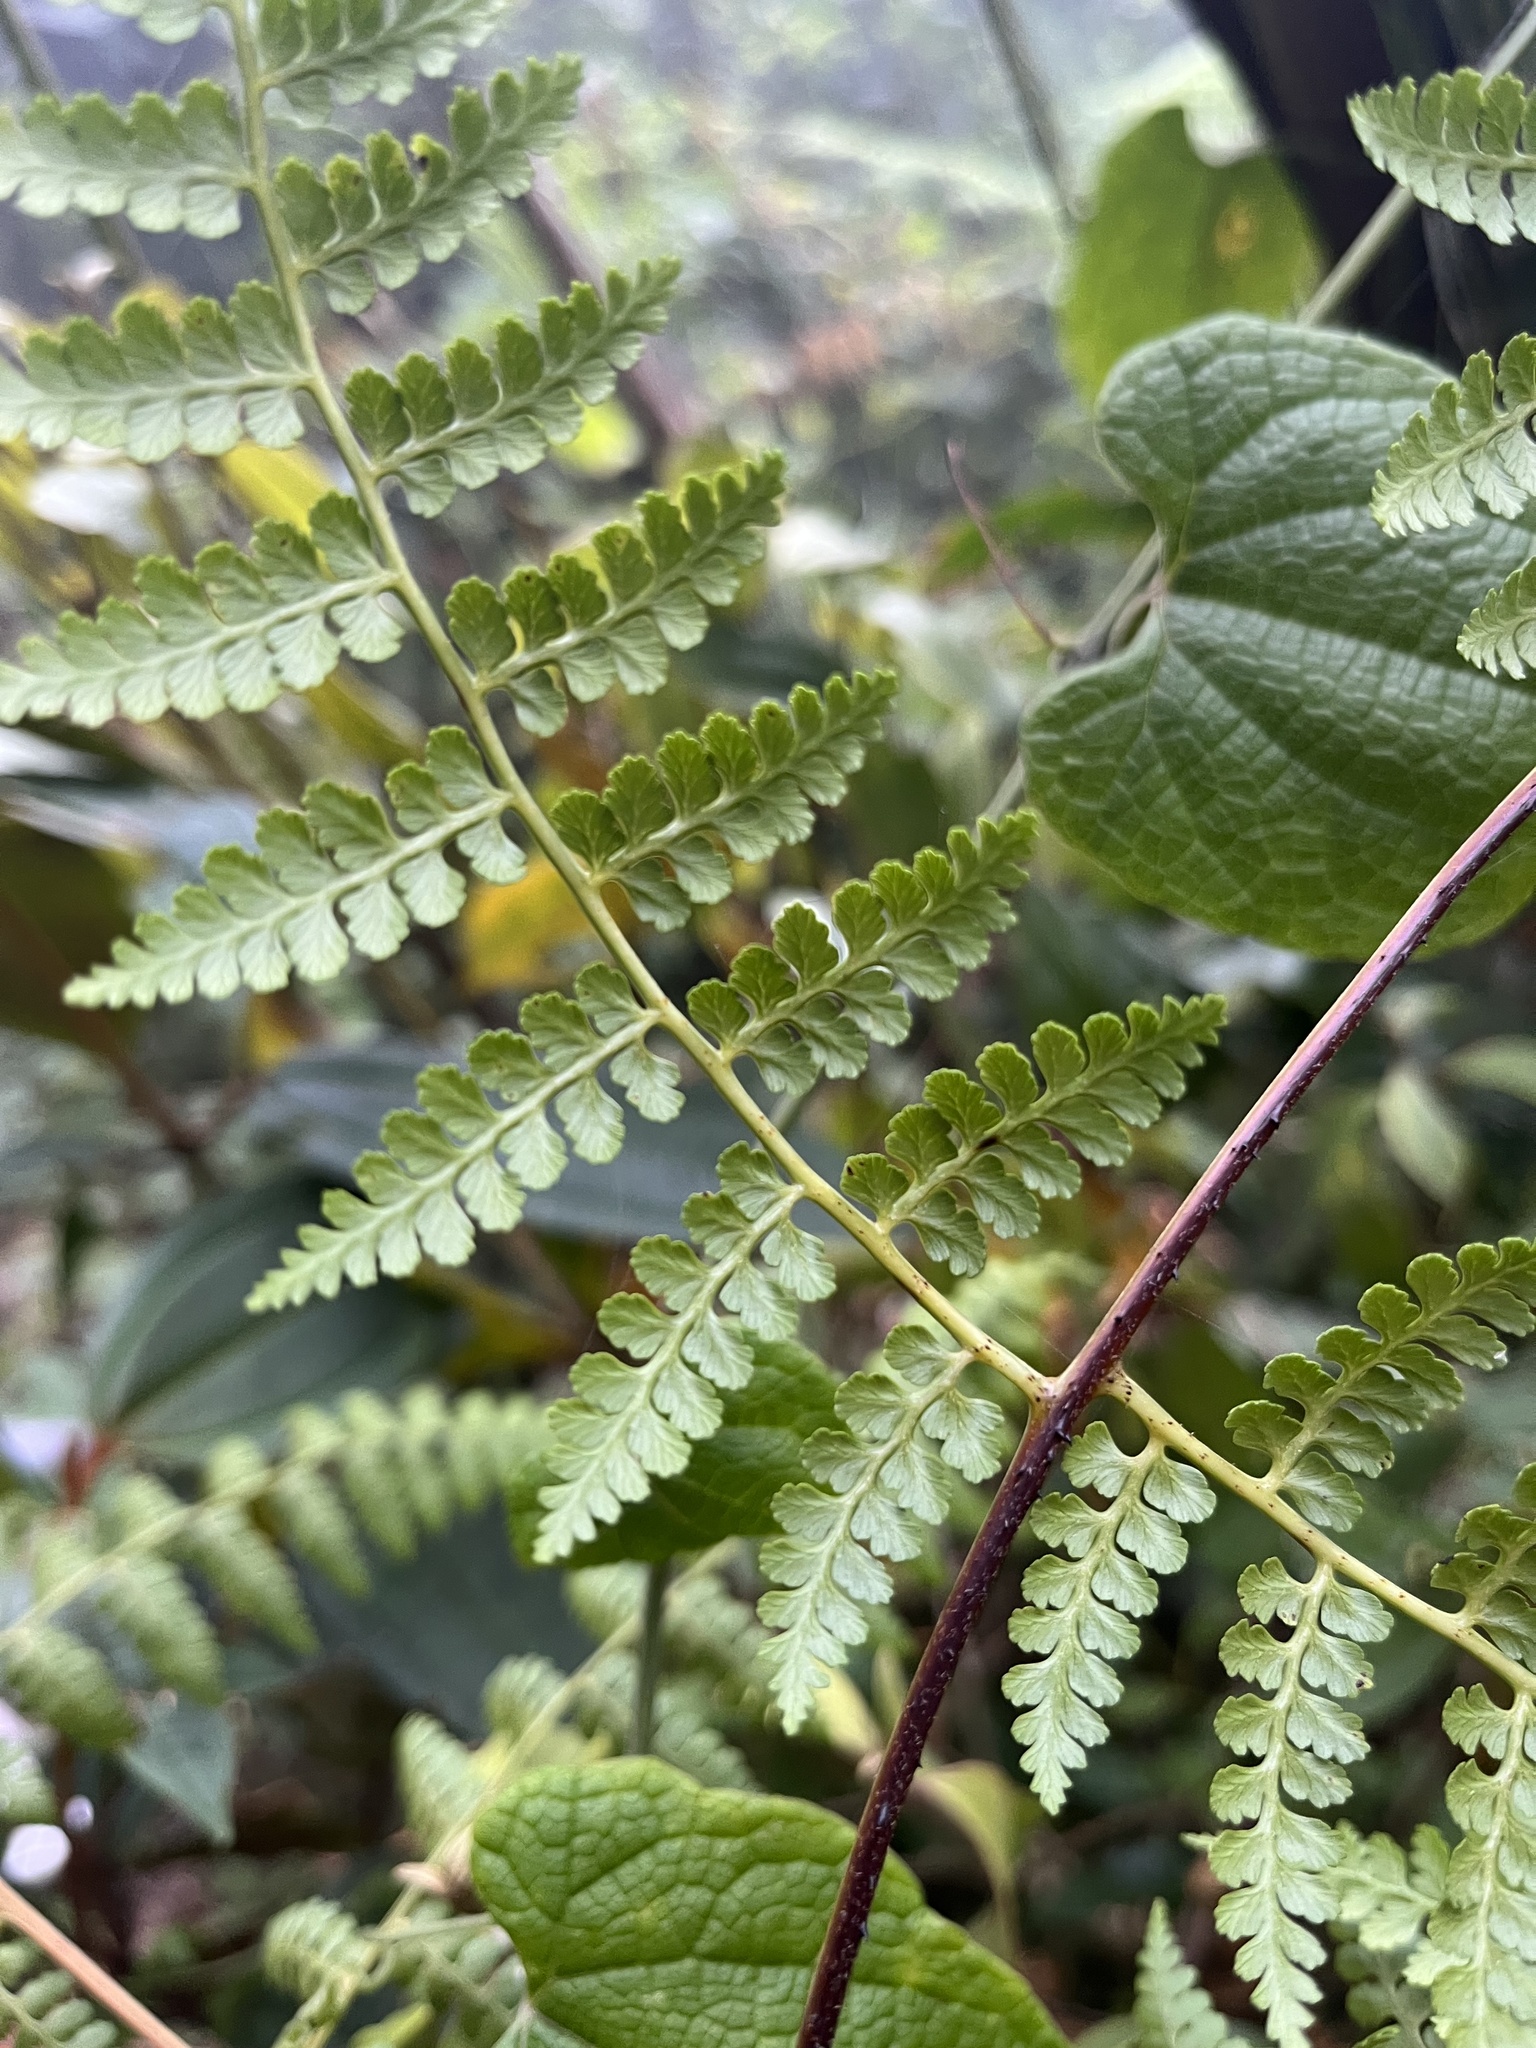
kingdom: Plantae
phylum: Tracheophyta
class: Polypodiopsida
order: Polypodiales
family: Dennstaedtiaceae
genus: Hiya
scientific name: Hiya nigrescens
